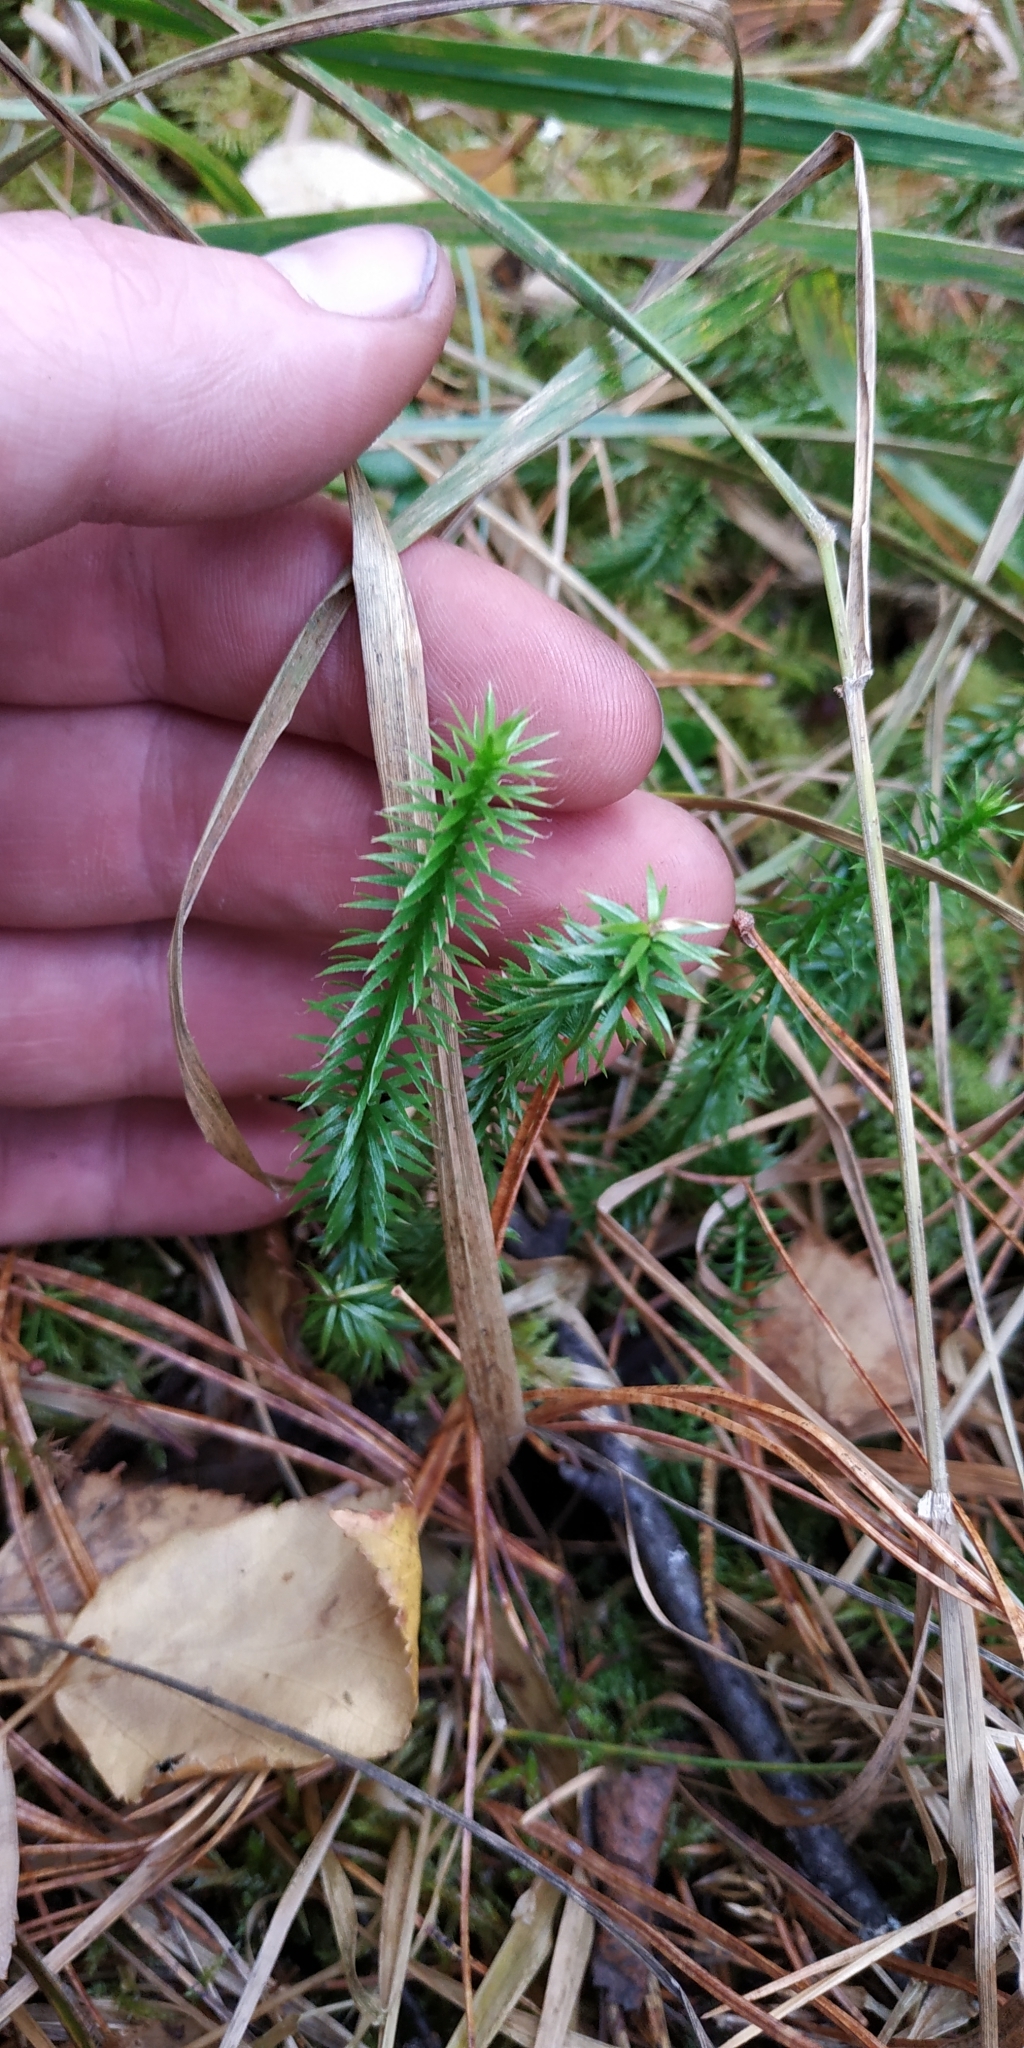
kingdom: Plantae
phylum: Tracheophyta
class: Lycopodiopsida
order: Lycopodiales
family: Lycopodiaceae
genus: Spinulum
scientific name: Spinulum annotinum
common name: Interrupted club-moss
